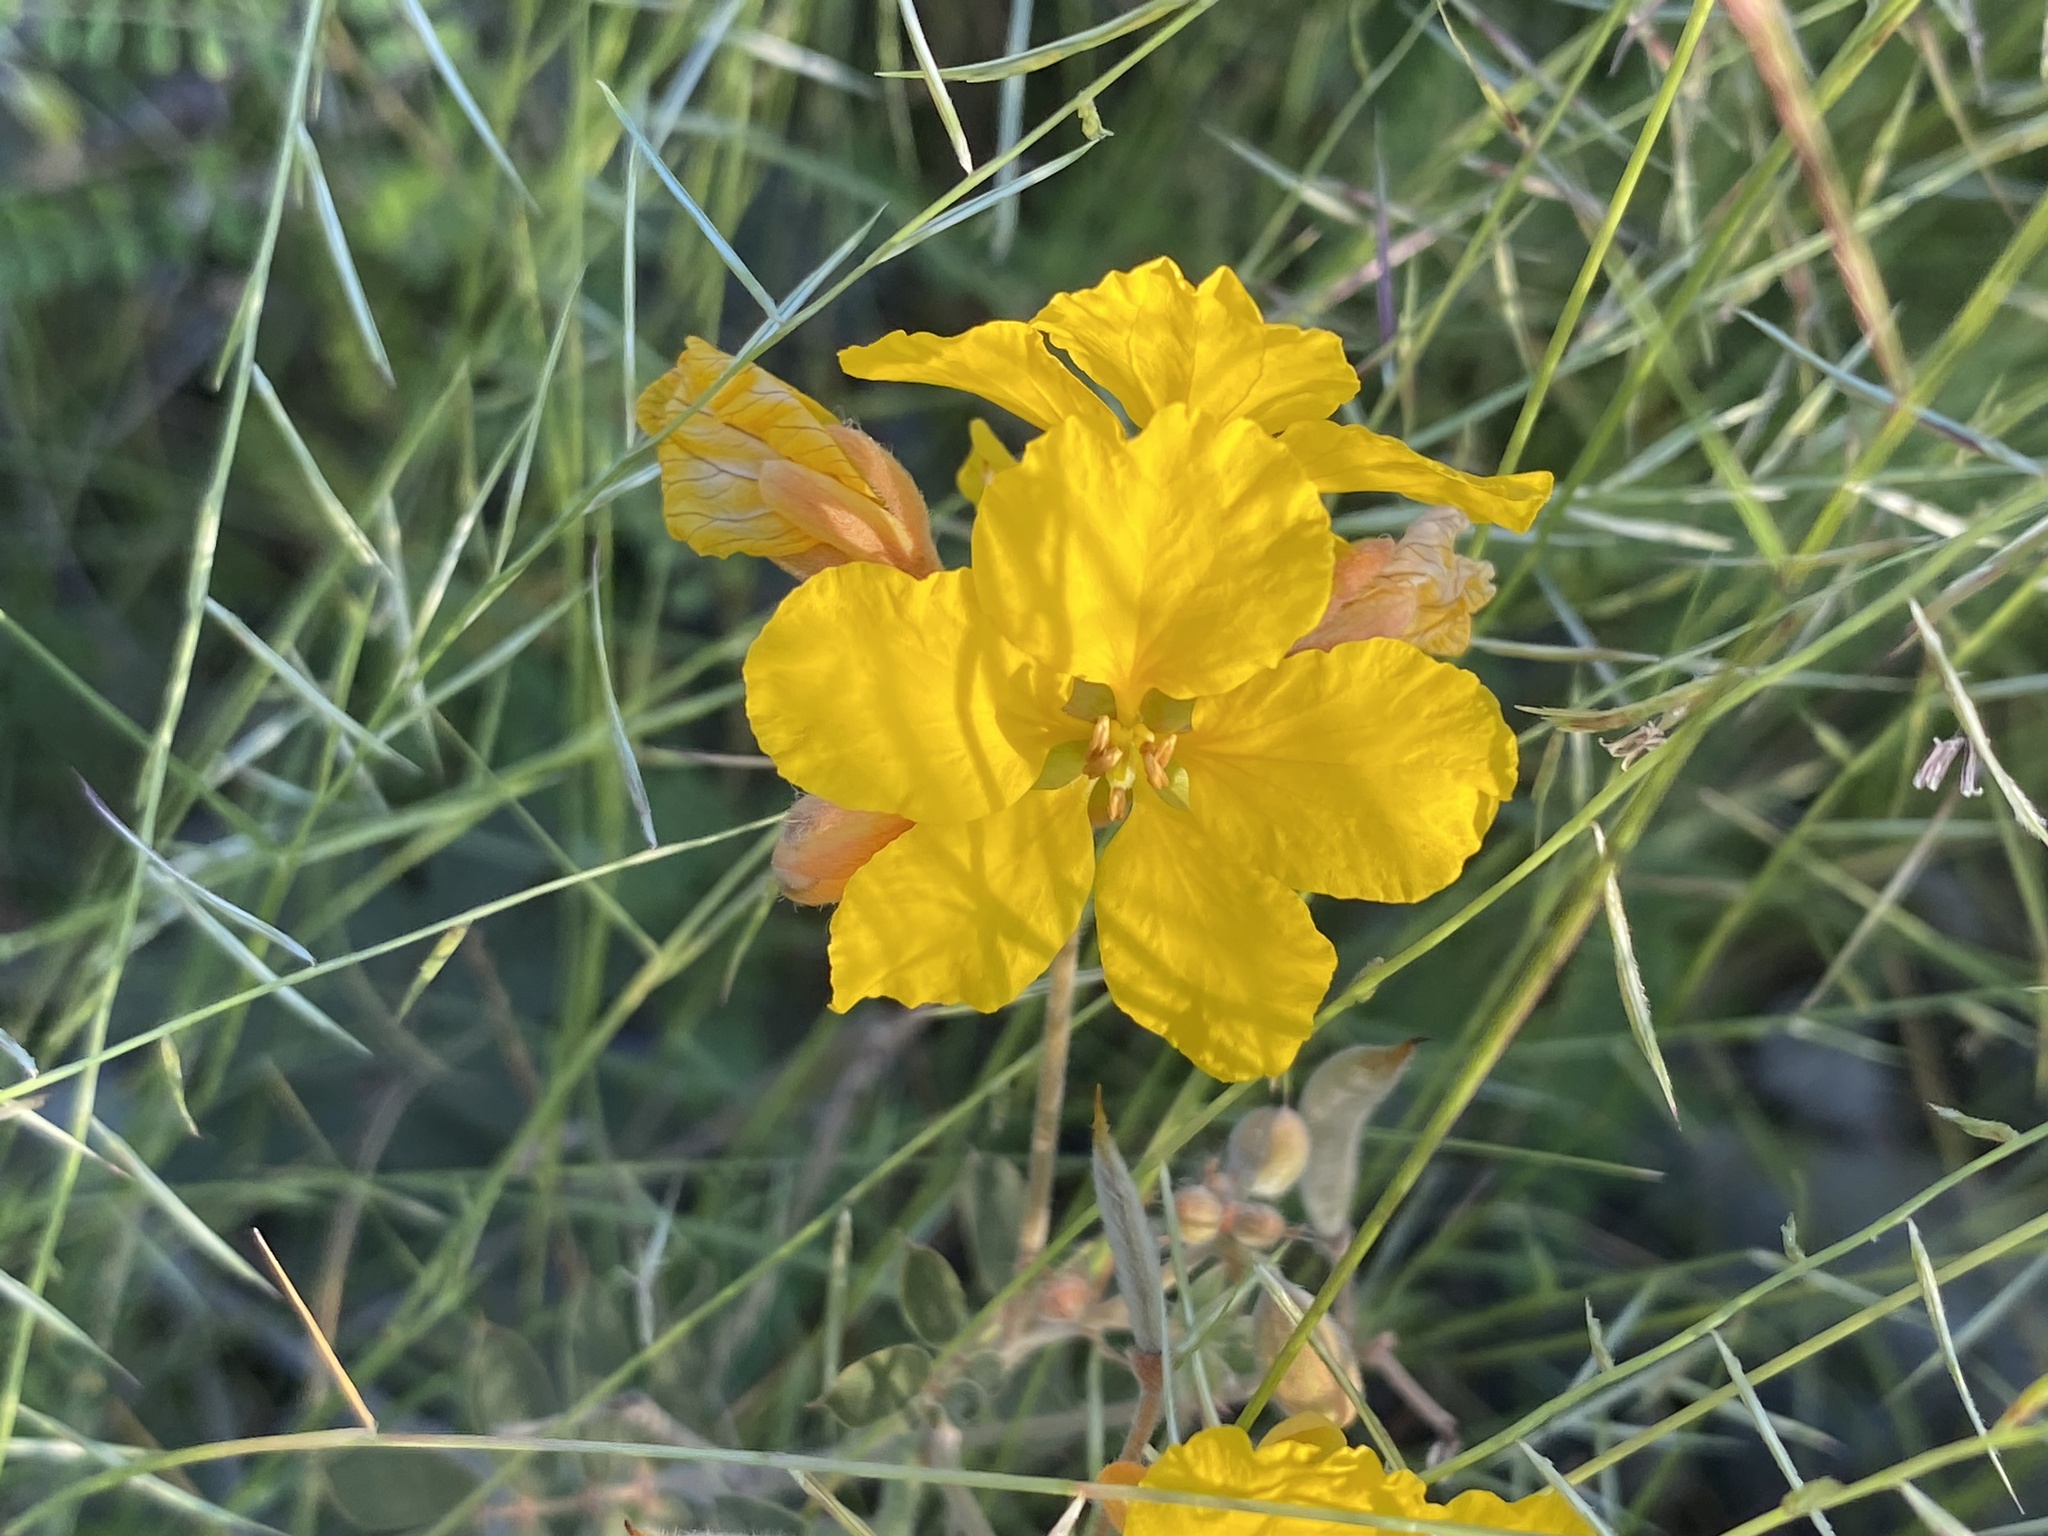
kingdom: Plantae
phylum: Tracheophyta
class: Magnoliopsida
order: Fabales
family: Fabaceae
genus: Senna
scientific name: Senna covesii
